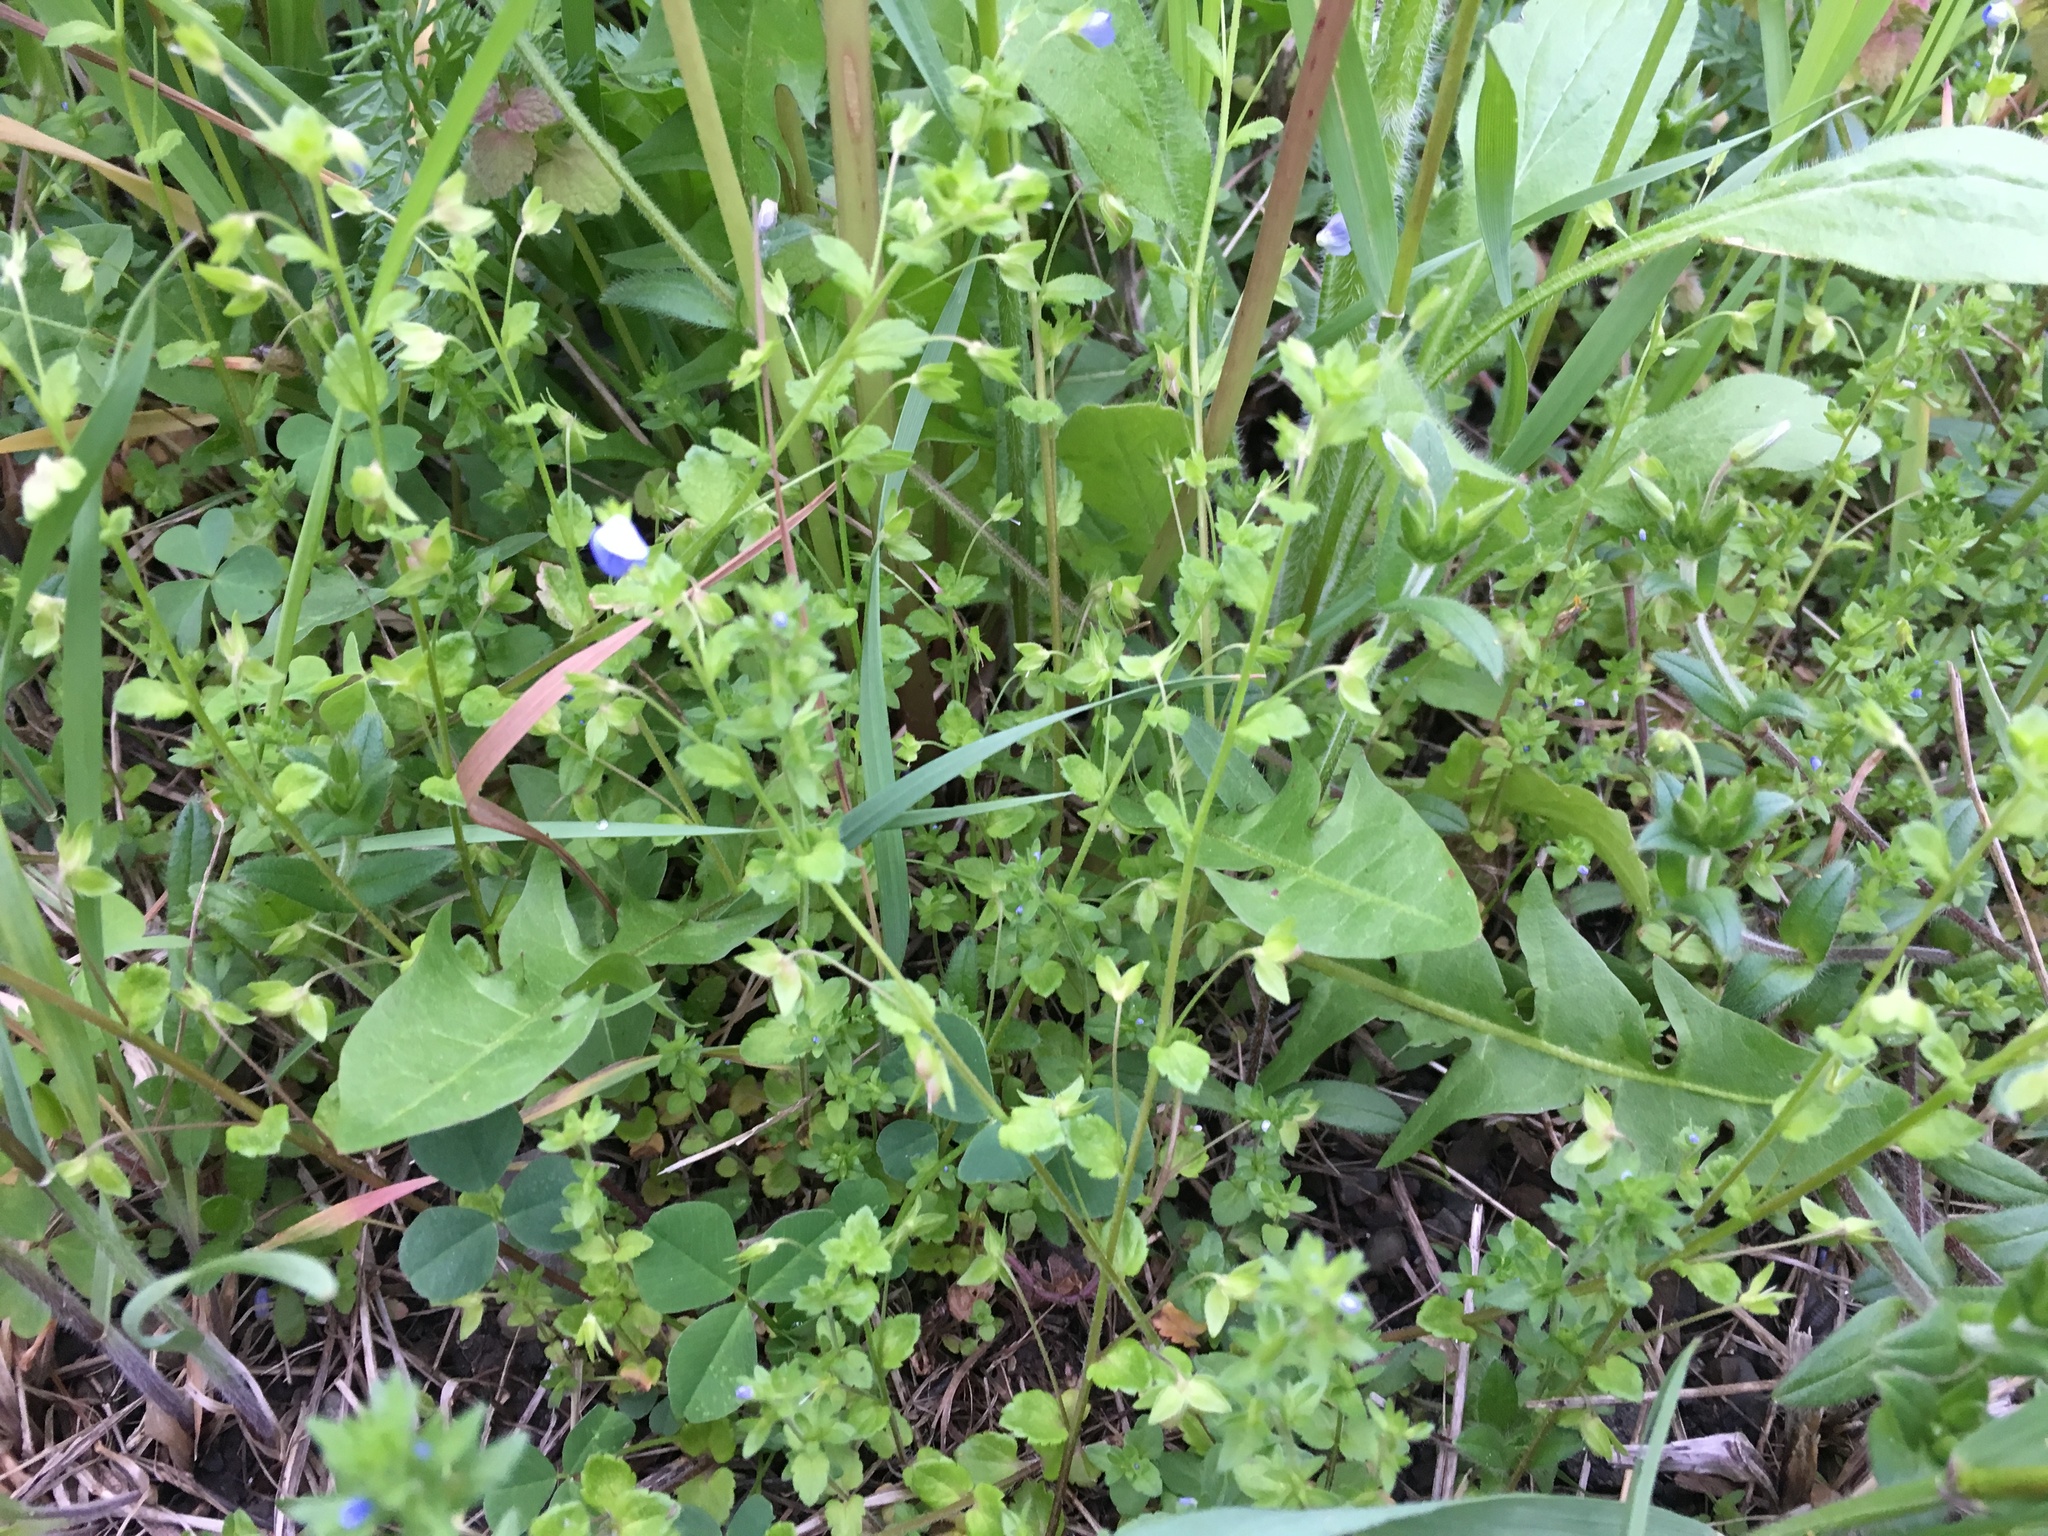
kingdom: Plantae
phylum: Tracheophyta
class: Magnoliopsida
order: Lamiales
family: Plantaginaceae
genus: Veronica
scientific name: Veronica persica
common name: Common field-speedwell
